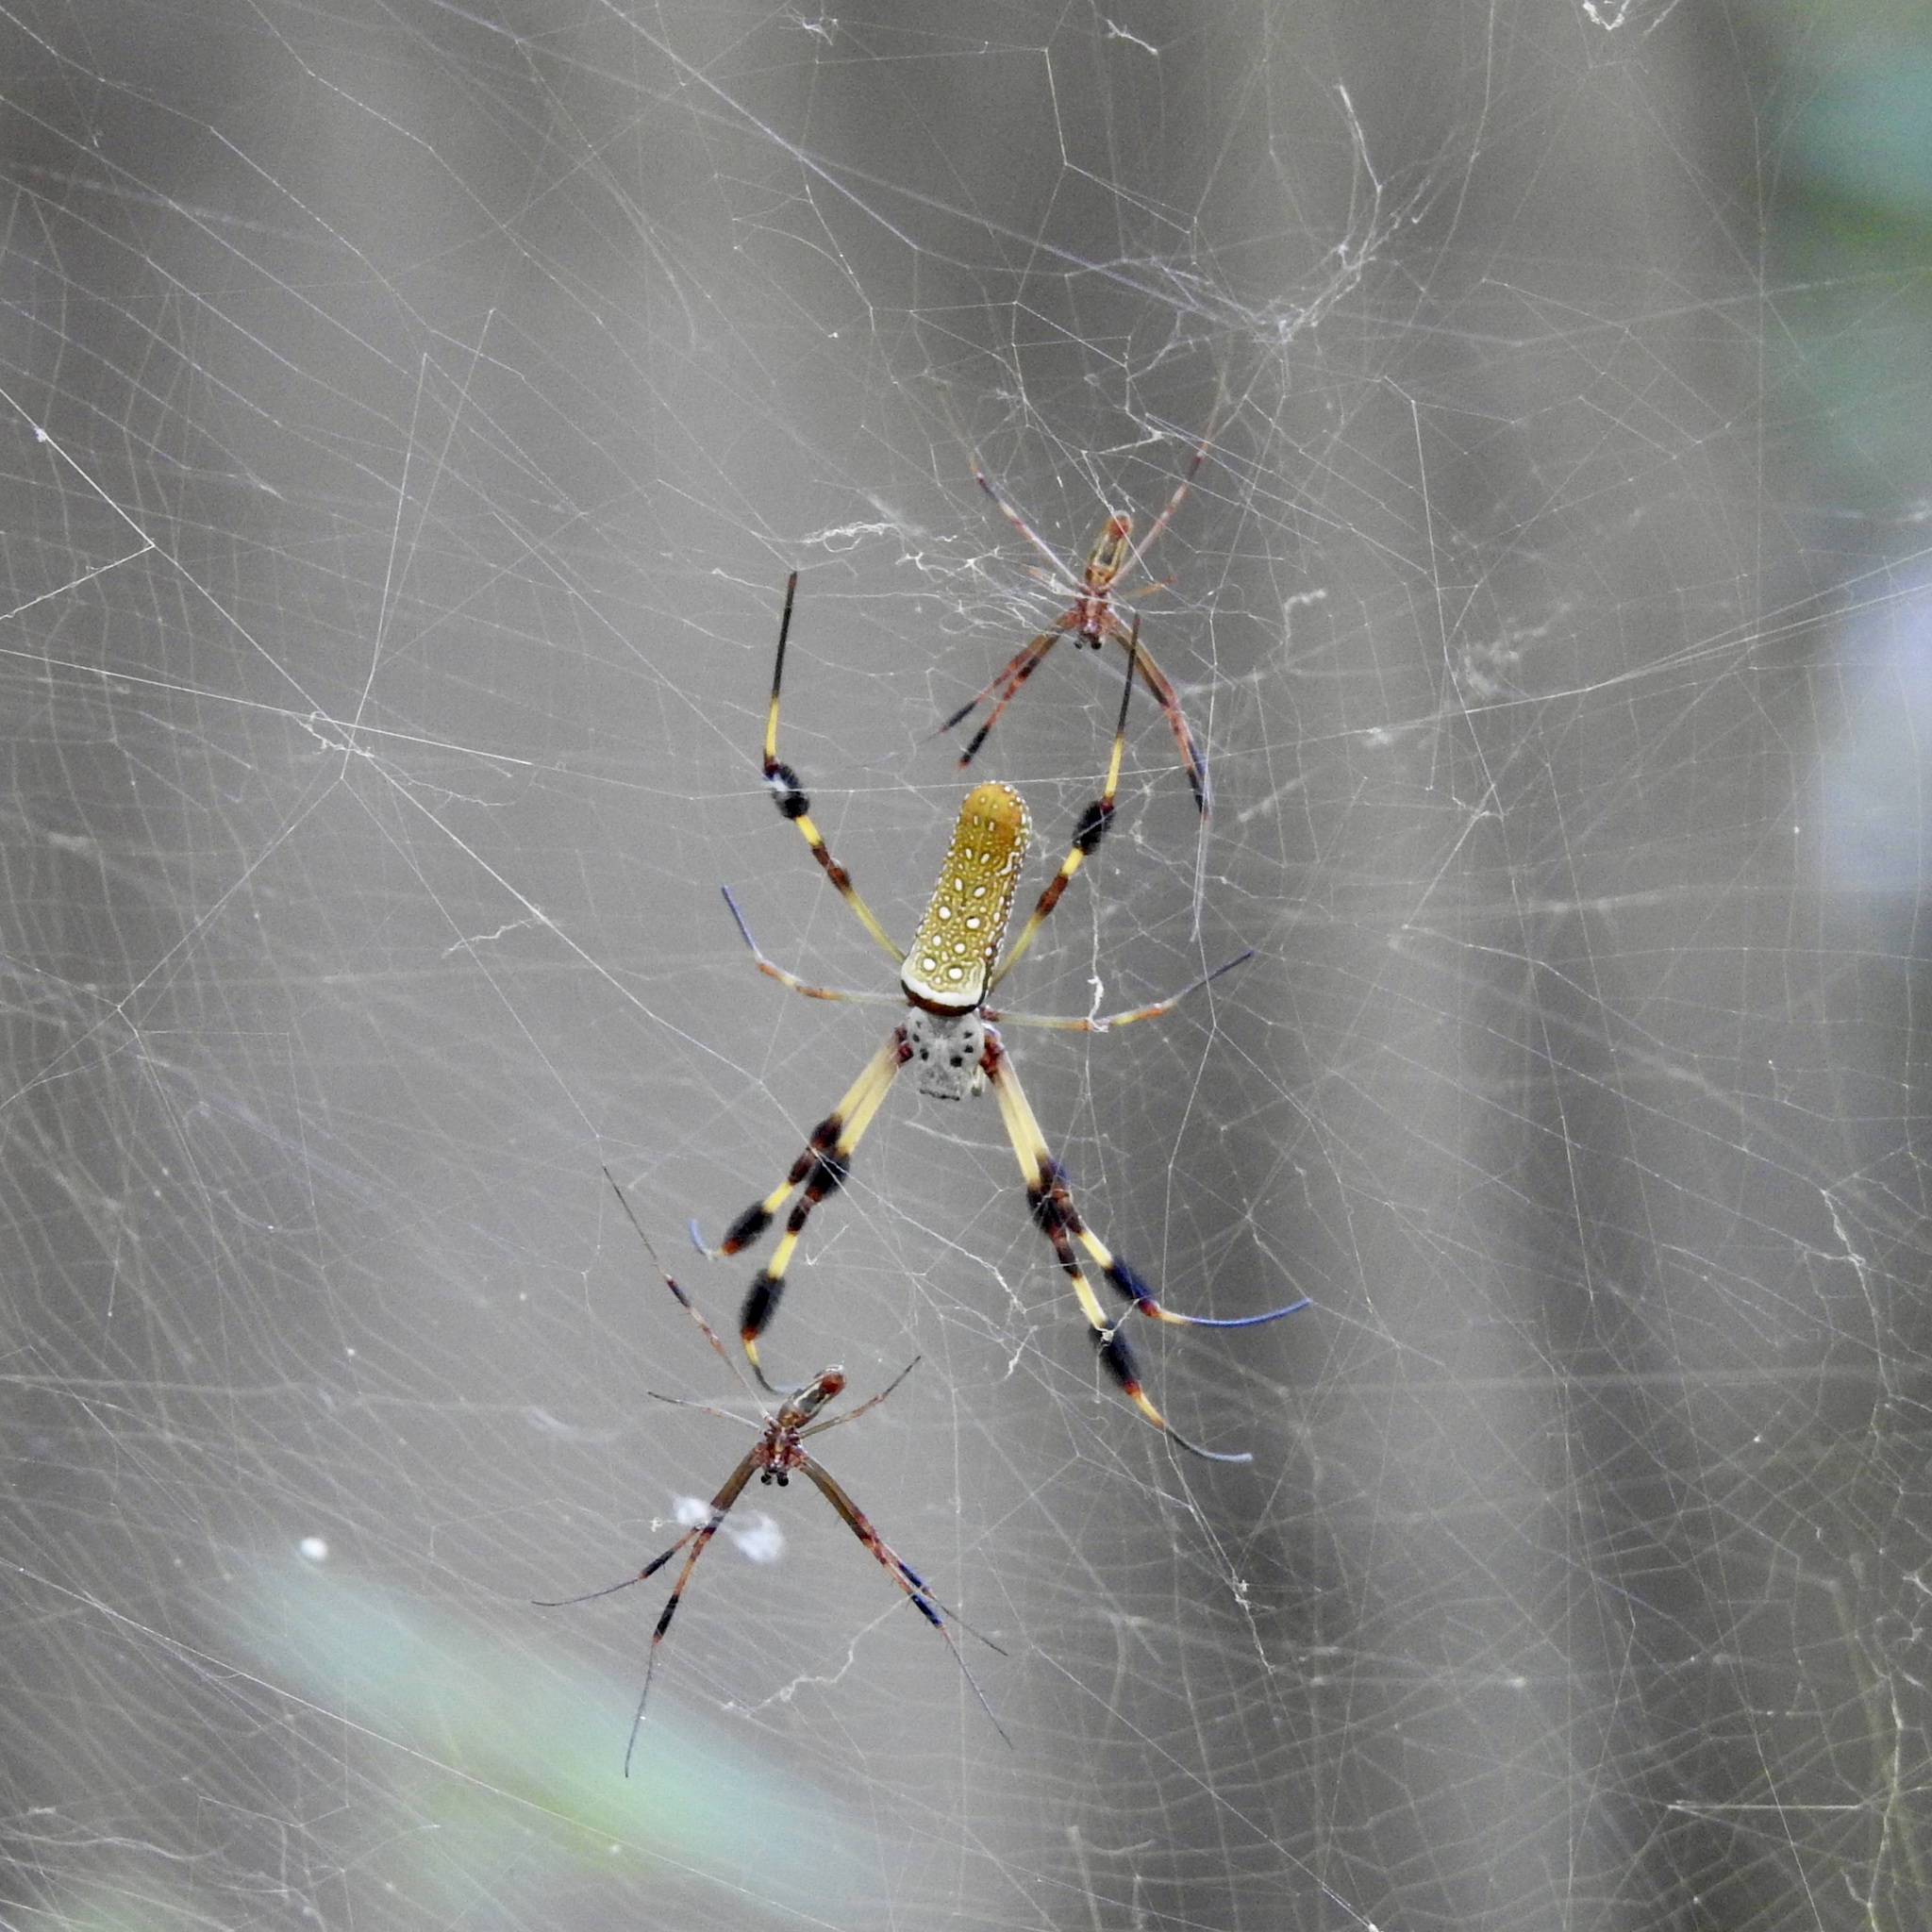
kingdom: Animalia
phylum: Arthropoda
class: Arachnida
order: Araneae
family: Araneidae
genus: Trichonephila
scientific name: Trichonephila clavipes
